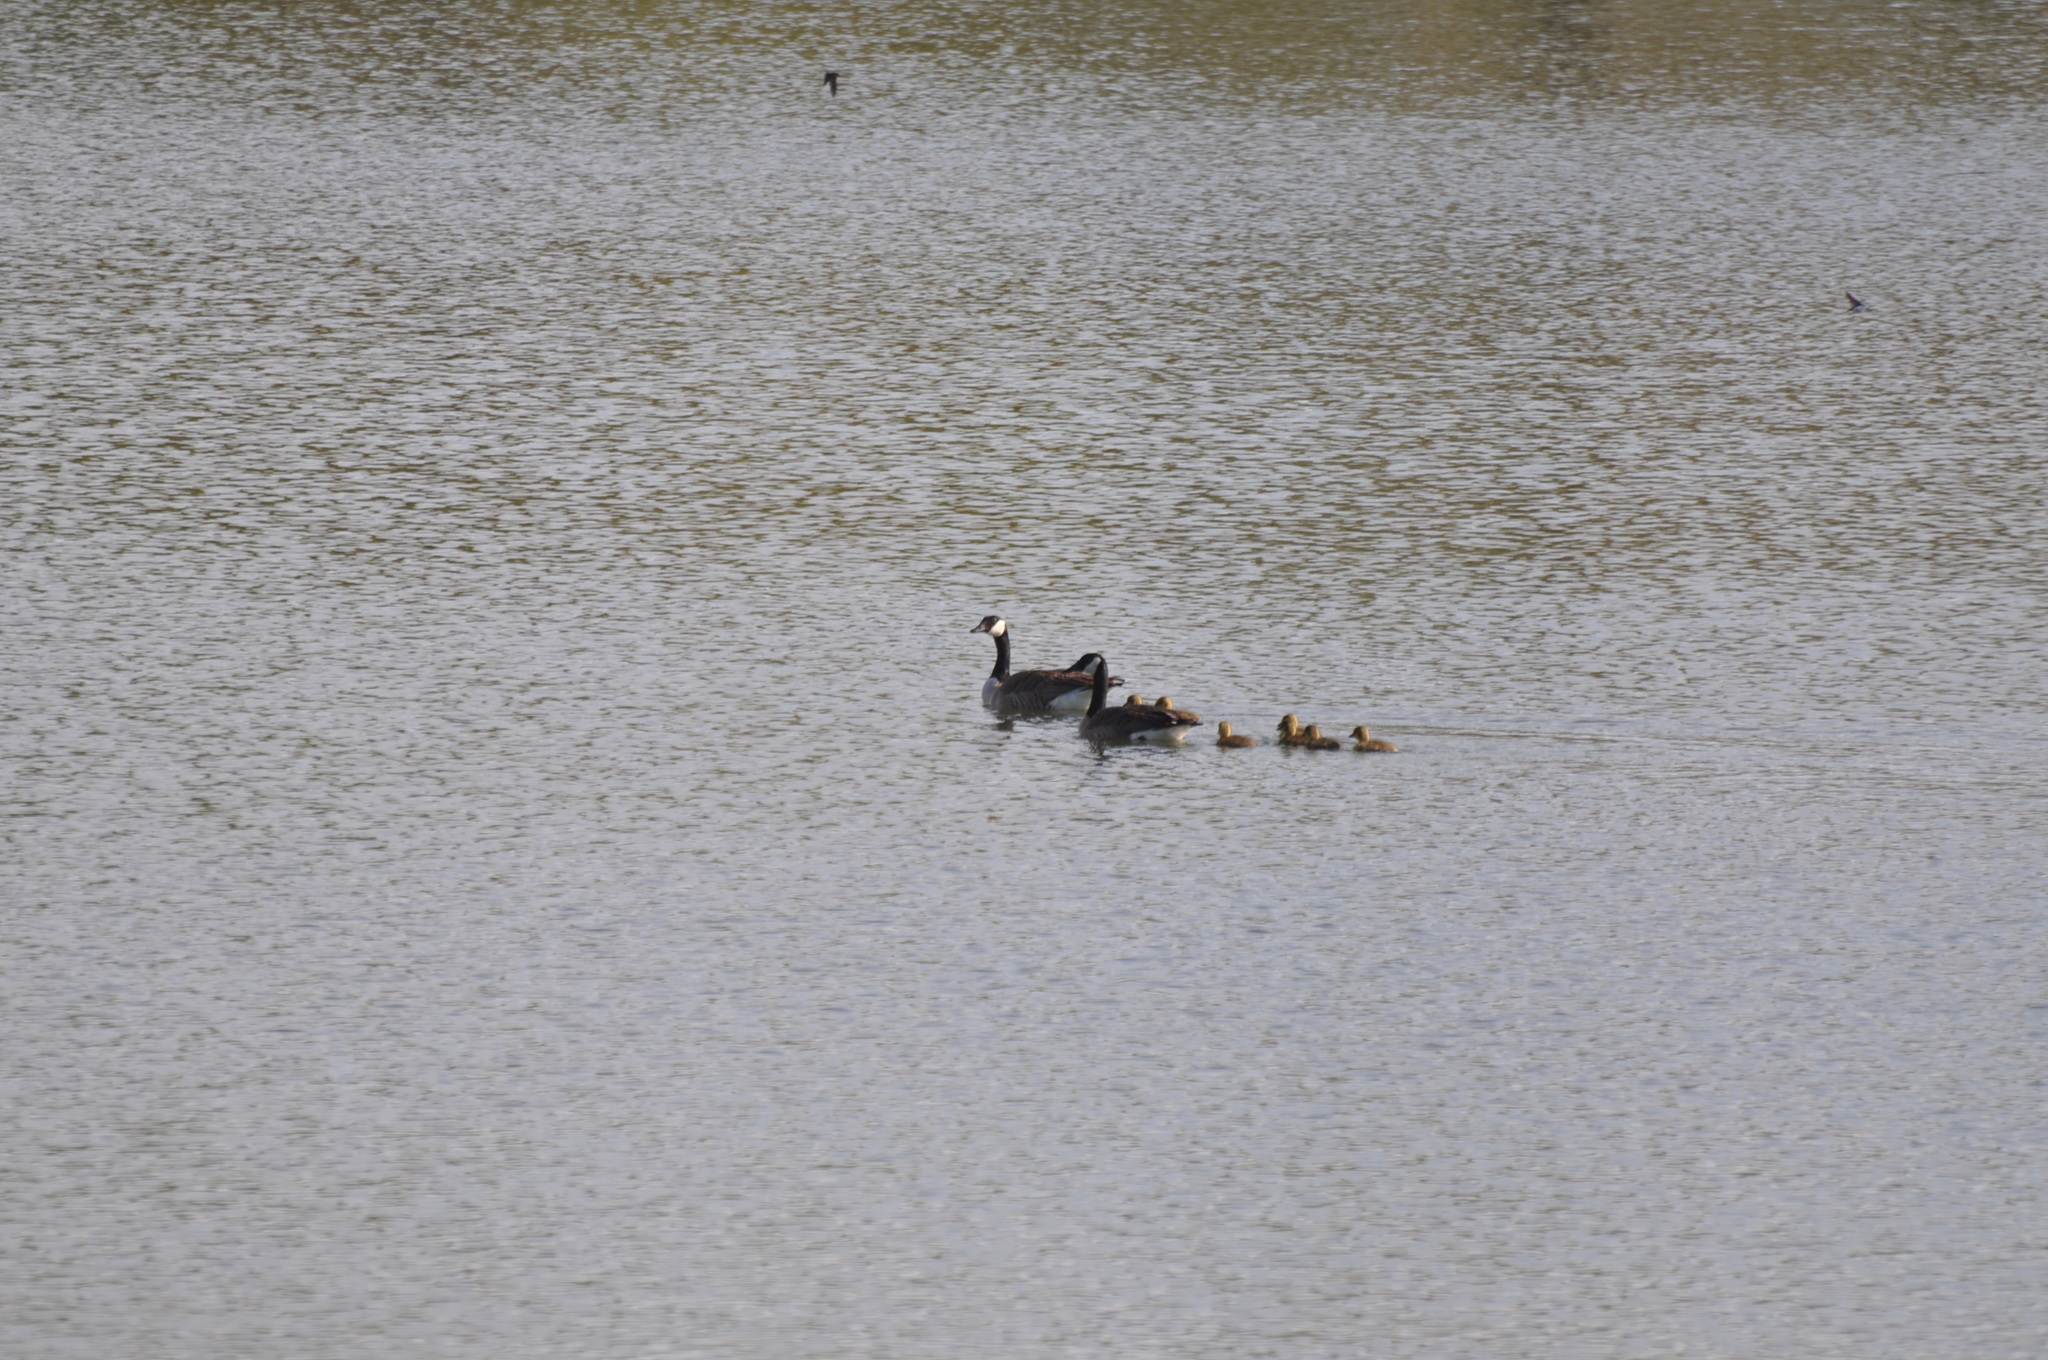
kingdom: Animalia
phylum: Chordata
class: Aves
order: Anseriformes
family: Anatidae
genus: Branta
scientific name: Branta canadensis
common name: Canada goose
